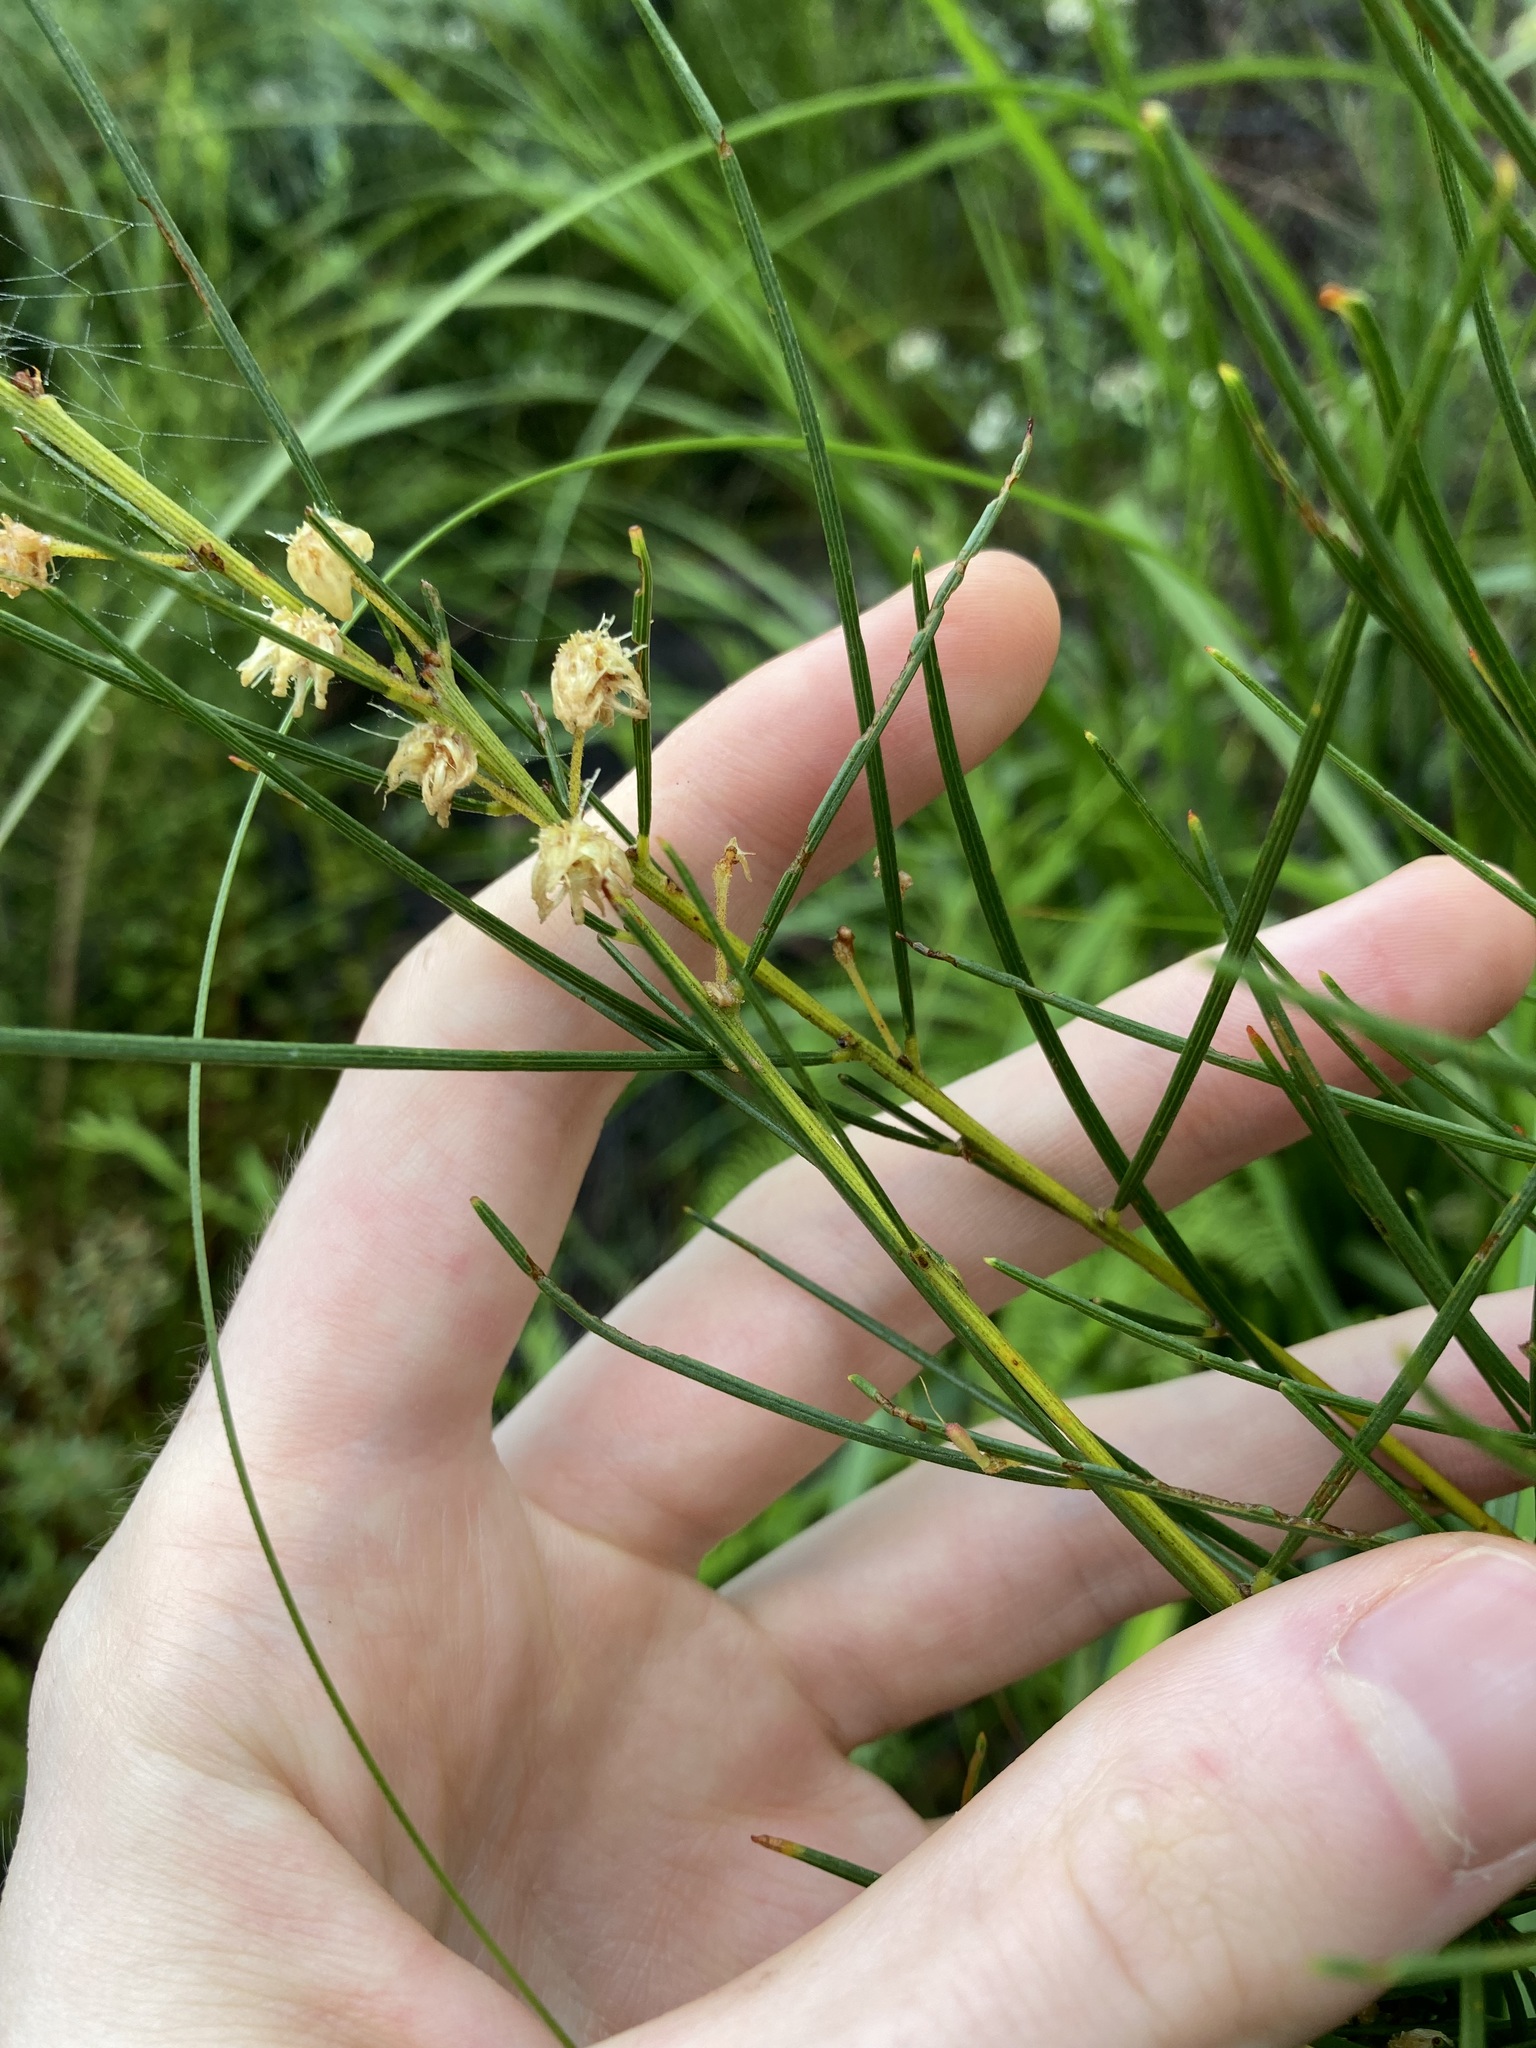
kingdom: Plantae
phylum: Tracheophyta
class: Magnoliopsida
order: Fabales
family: Fabaceae
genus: Acacia
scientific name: Acacia ptychoclada
